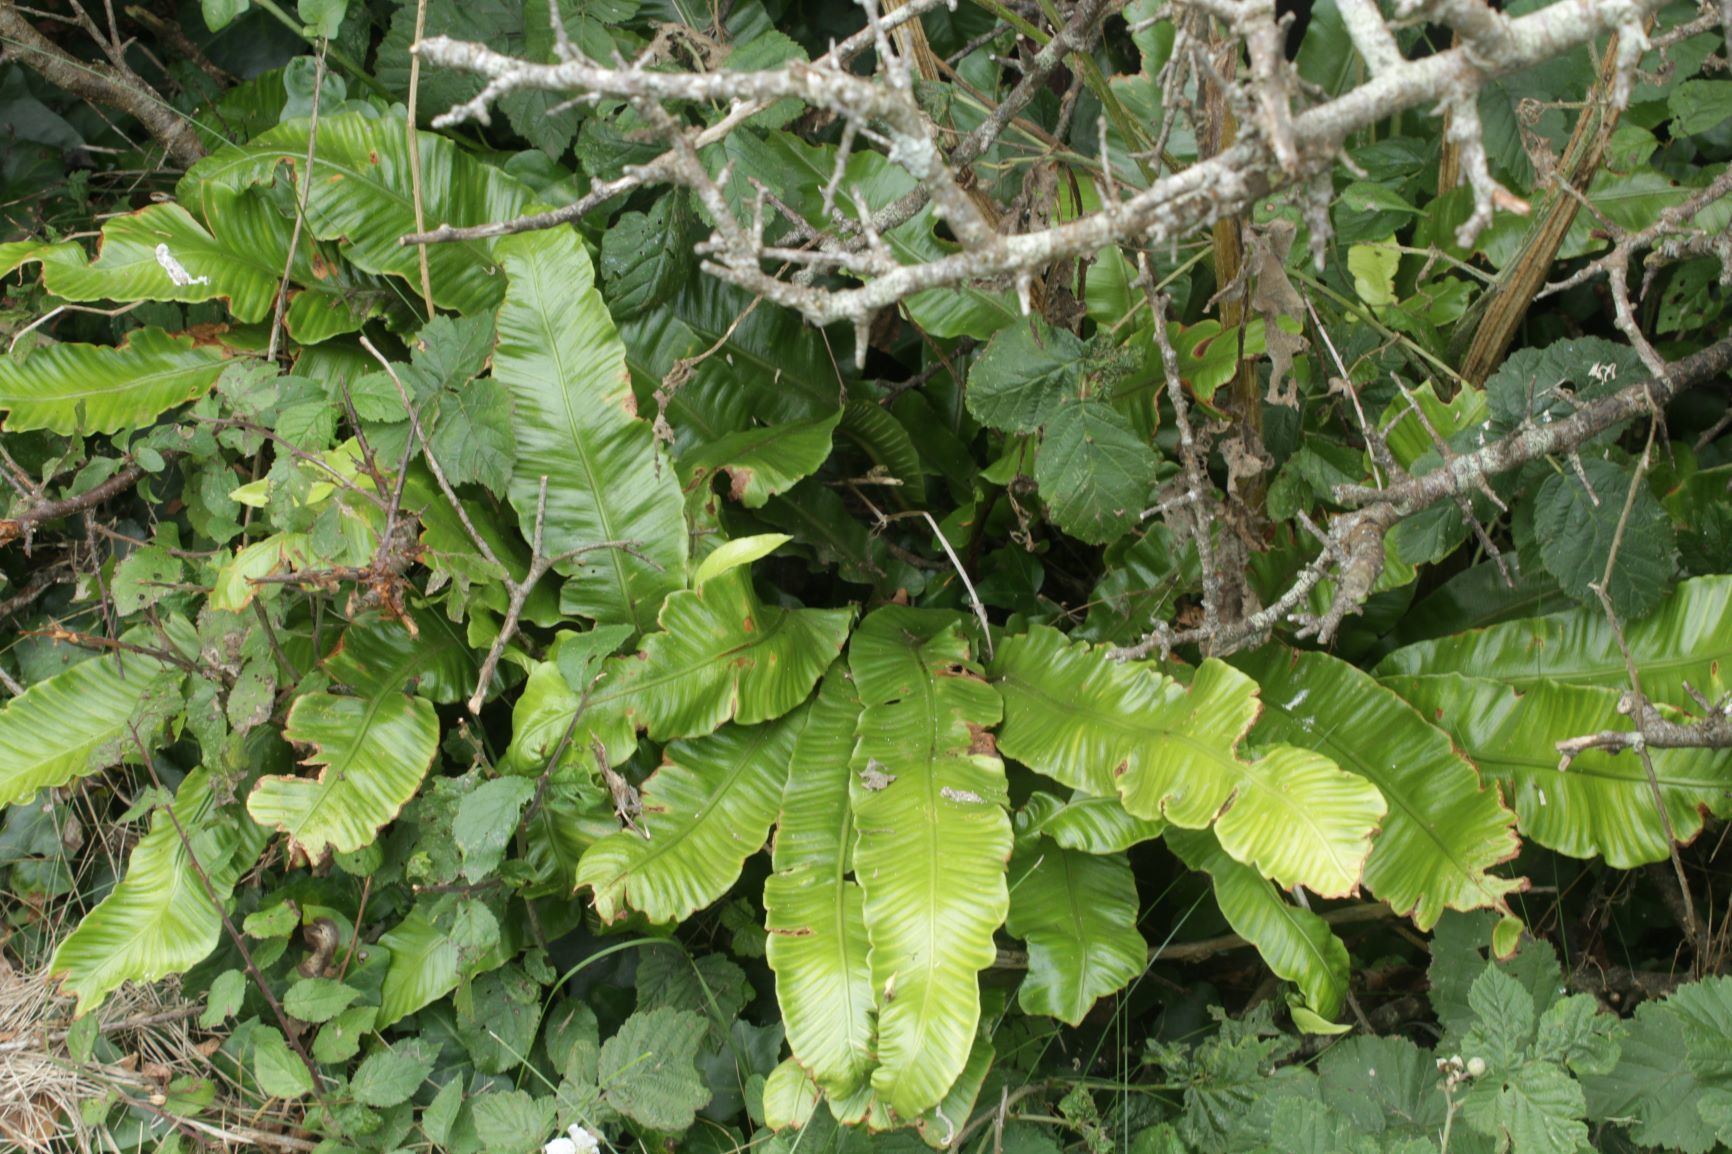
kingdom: Plantae
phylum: Tracheophyta
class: Polypodiopsida
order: Polypodiales
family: Aspleniaceae
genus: Asplenium
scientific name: Asplenium scolopendrium
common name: Hart's-tongue fern
